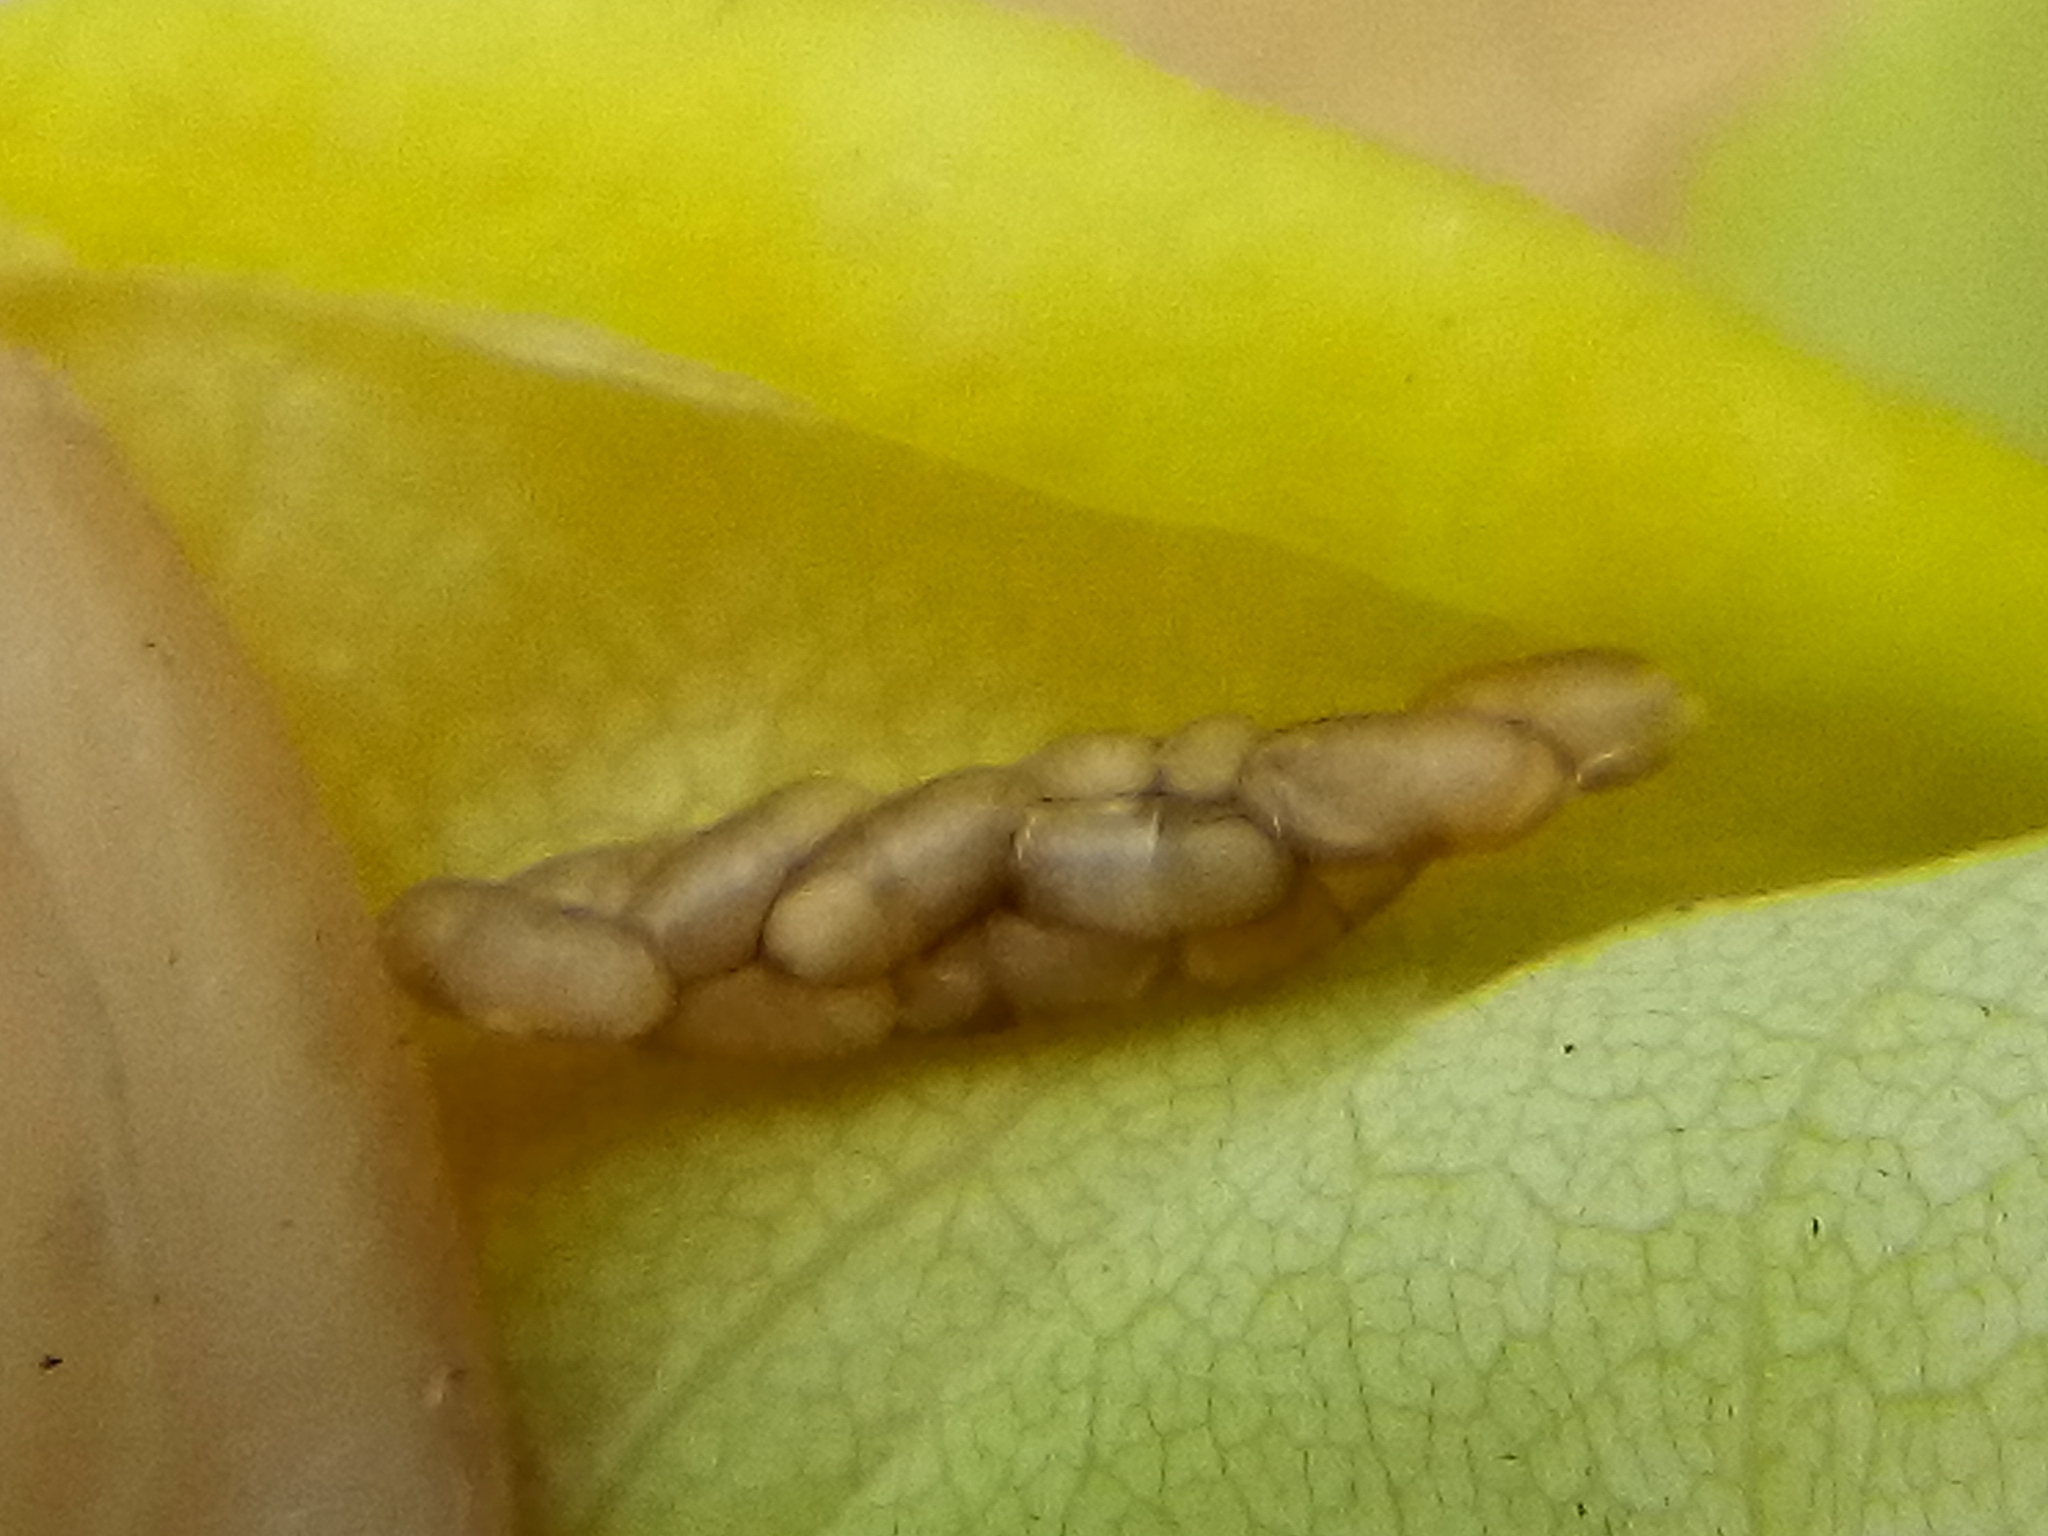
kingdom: Animalia
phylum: Arthropoda
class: Insecta
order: Hymenoptera
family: Platygastridae
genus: Platygaster
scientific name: Platygaster robiniae
